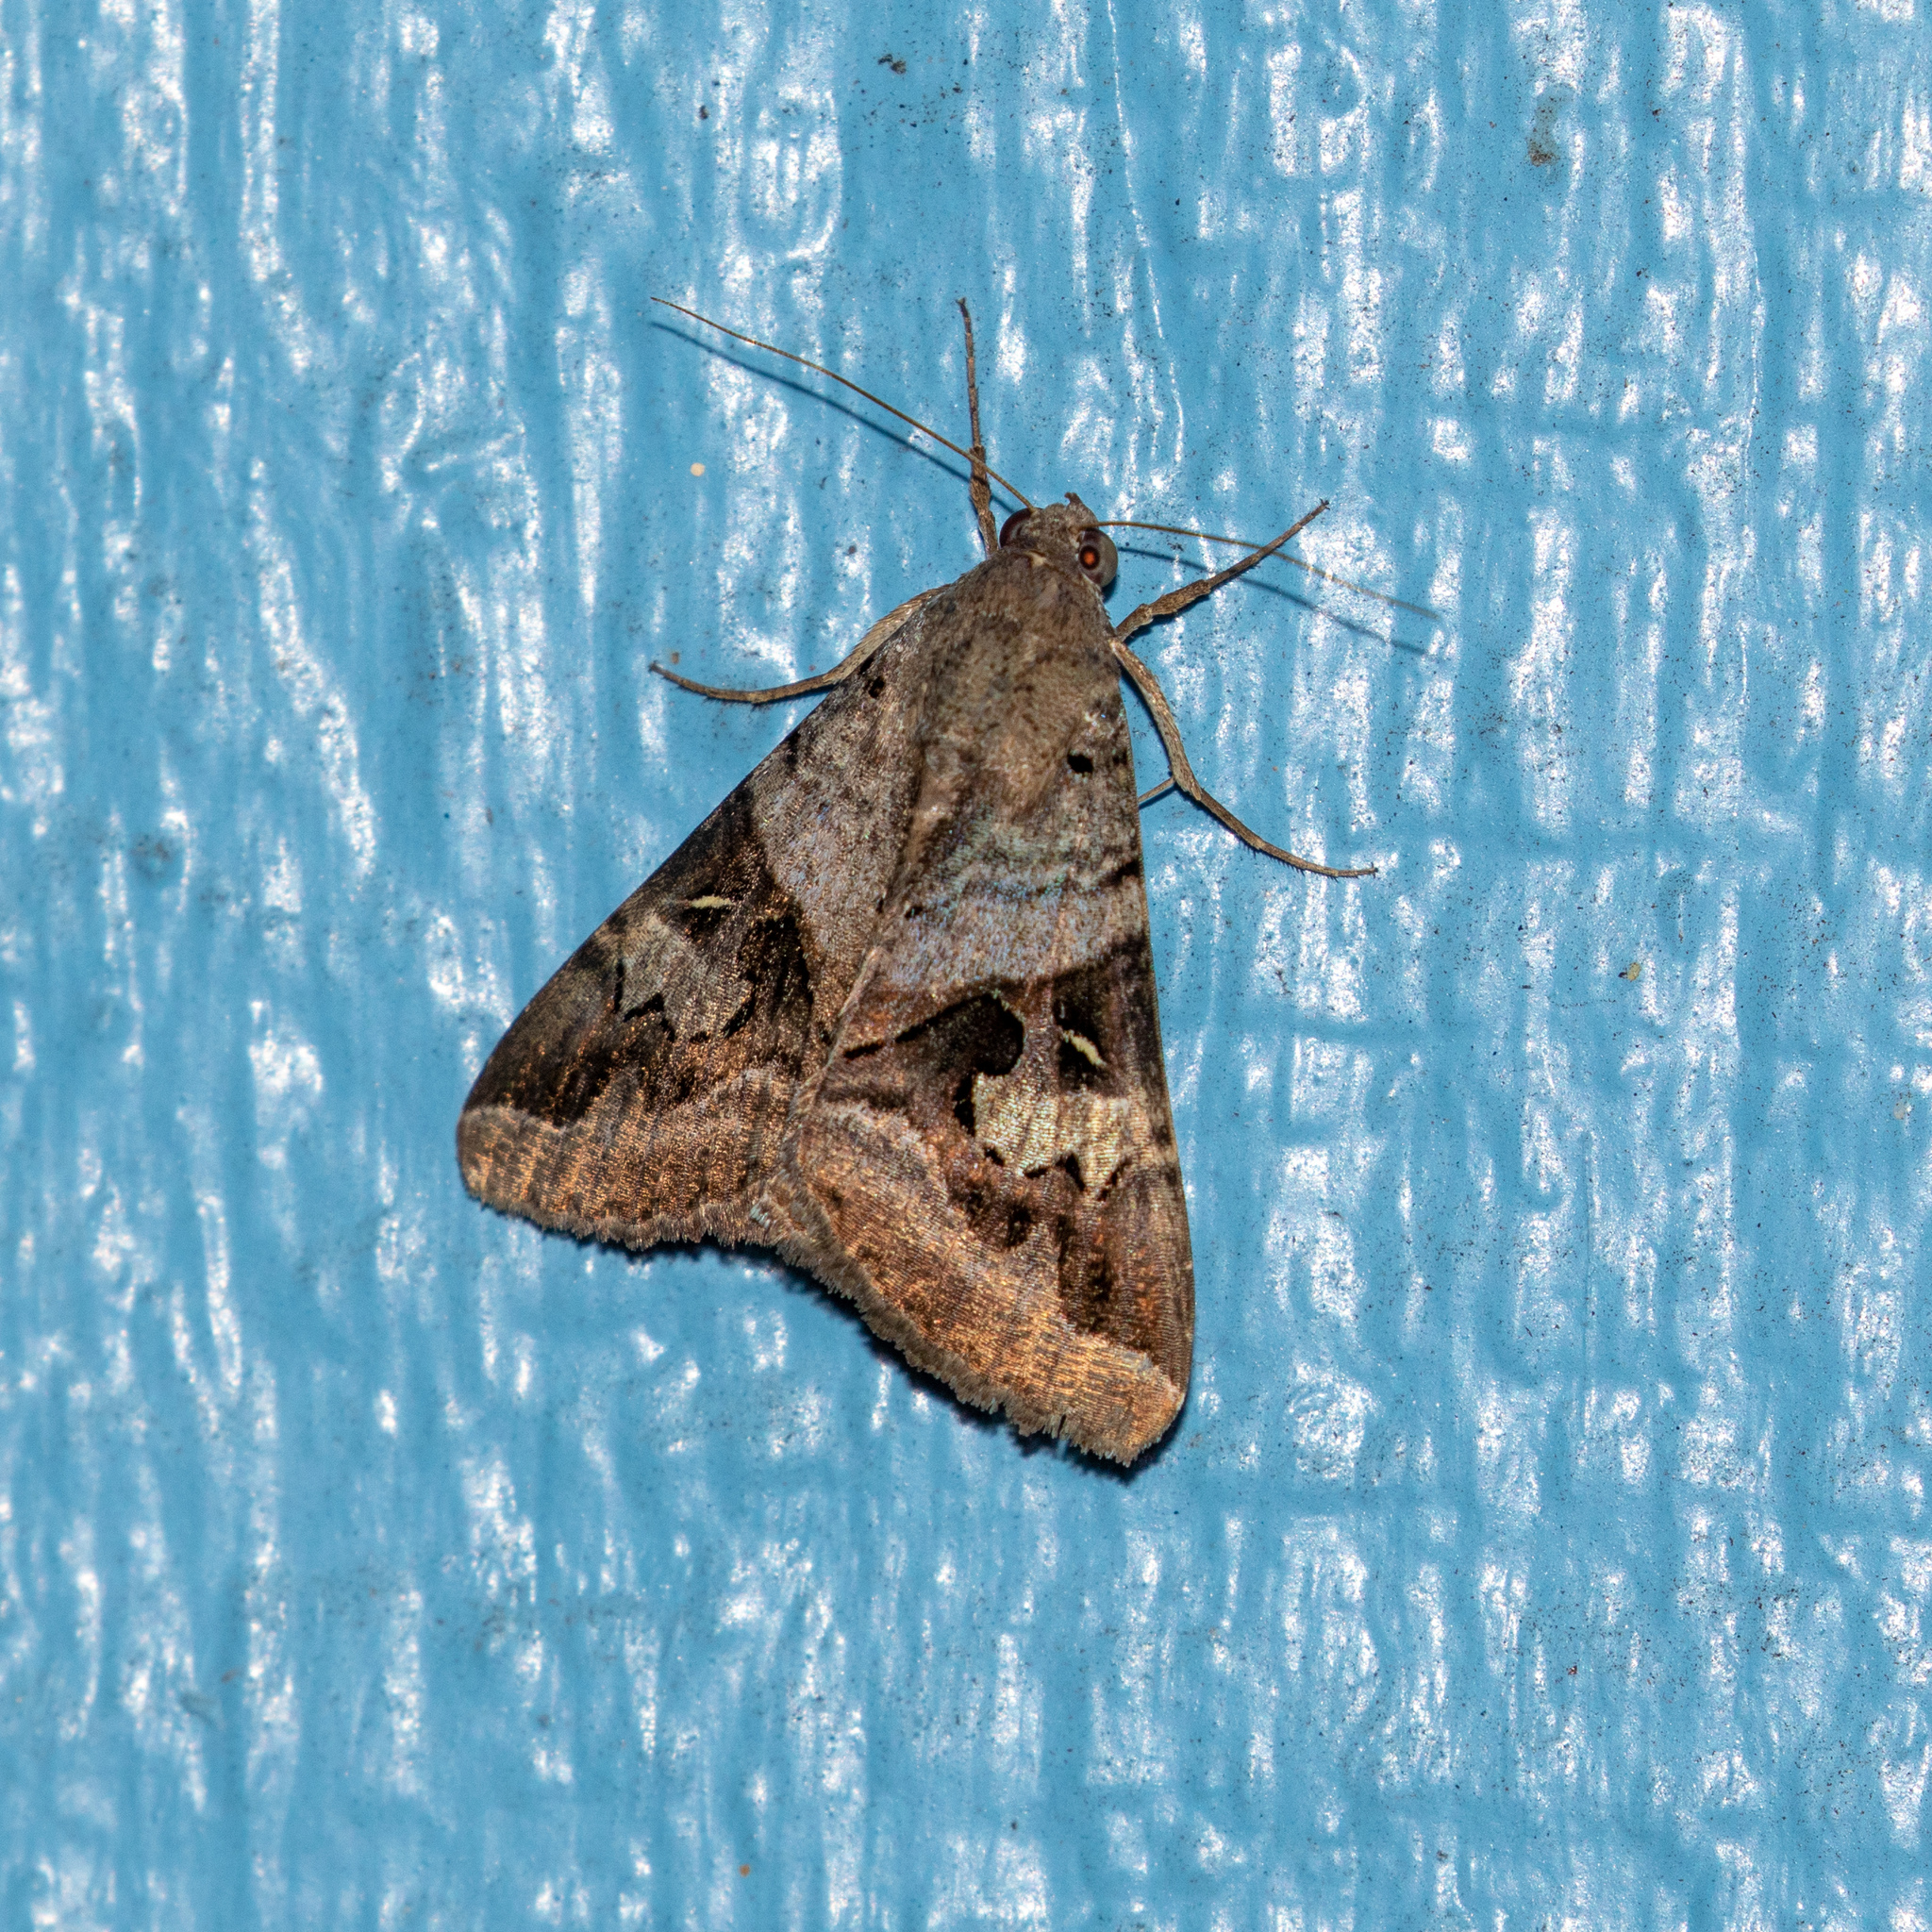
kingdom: Animalia
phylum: Arthropoda
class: Insecta
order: Lepidoptera
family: Erebidae
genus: Melipotis
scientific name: Melipotis indomita
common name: Moth
